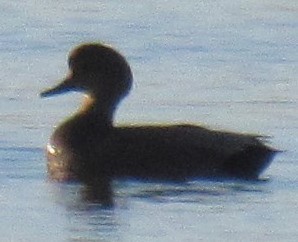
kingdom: Animalia
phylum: Chordata
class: Aves
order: Anseriformes
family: Anatidae
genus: Mareca
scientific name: Mareca strepera
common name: Gadwall
